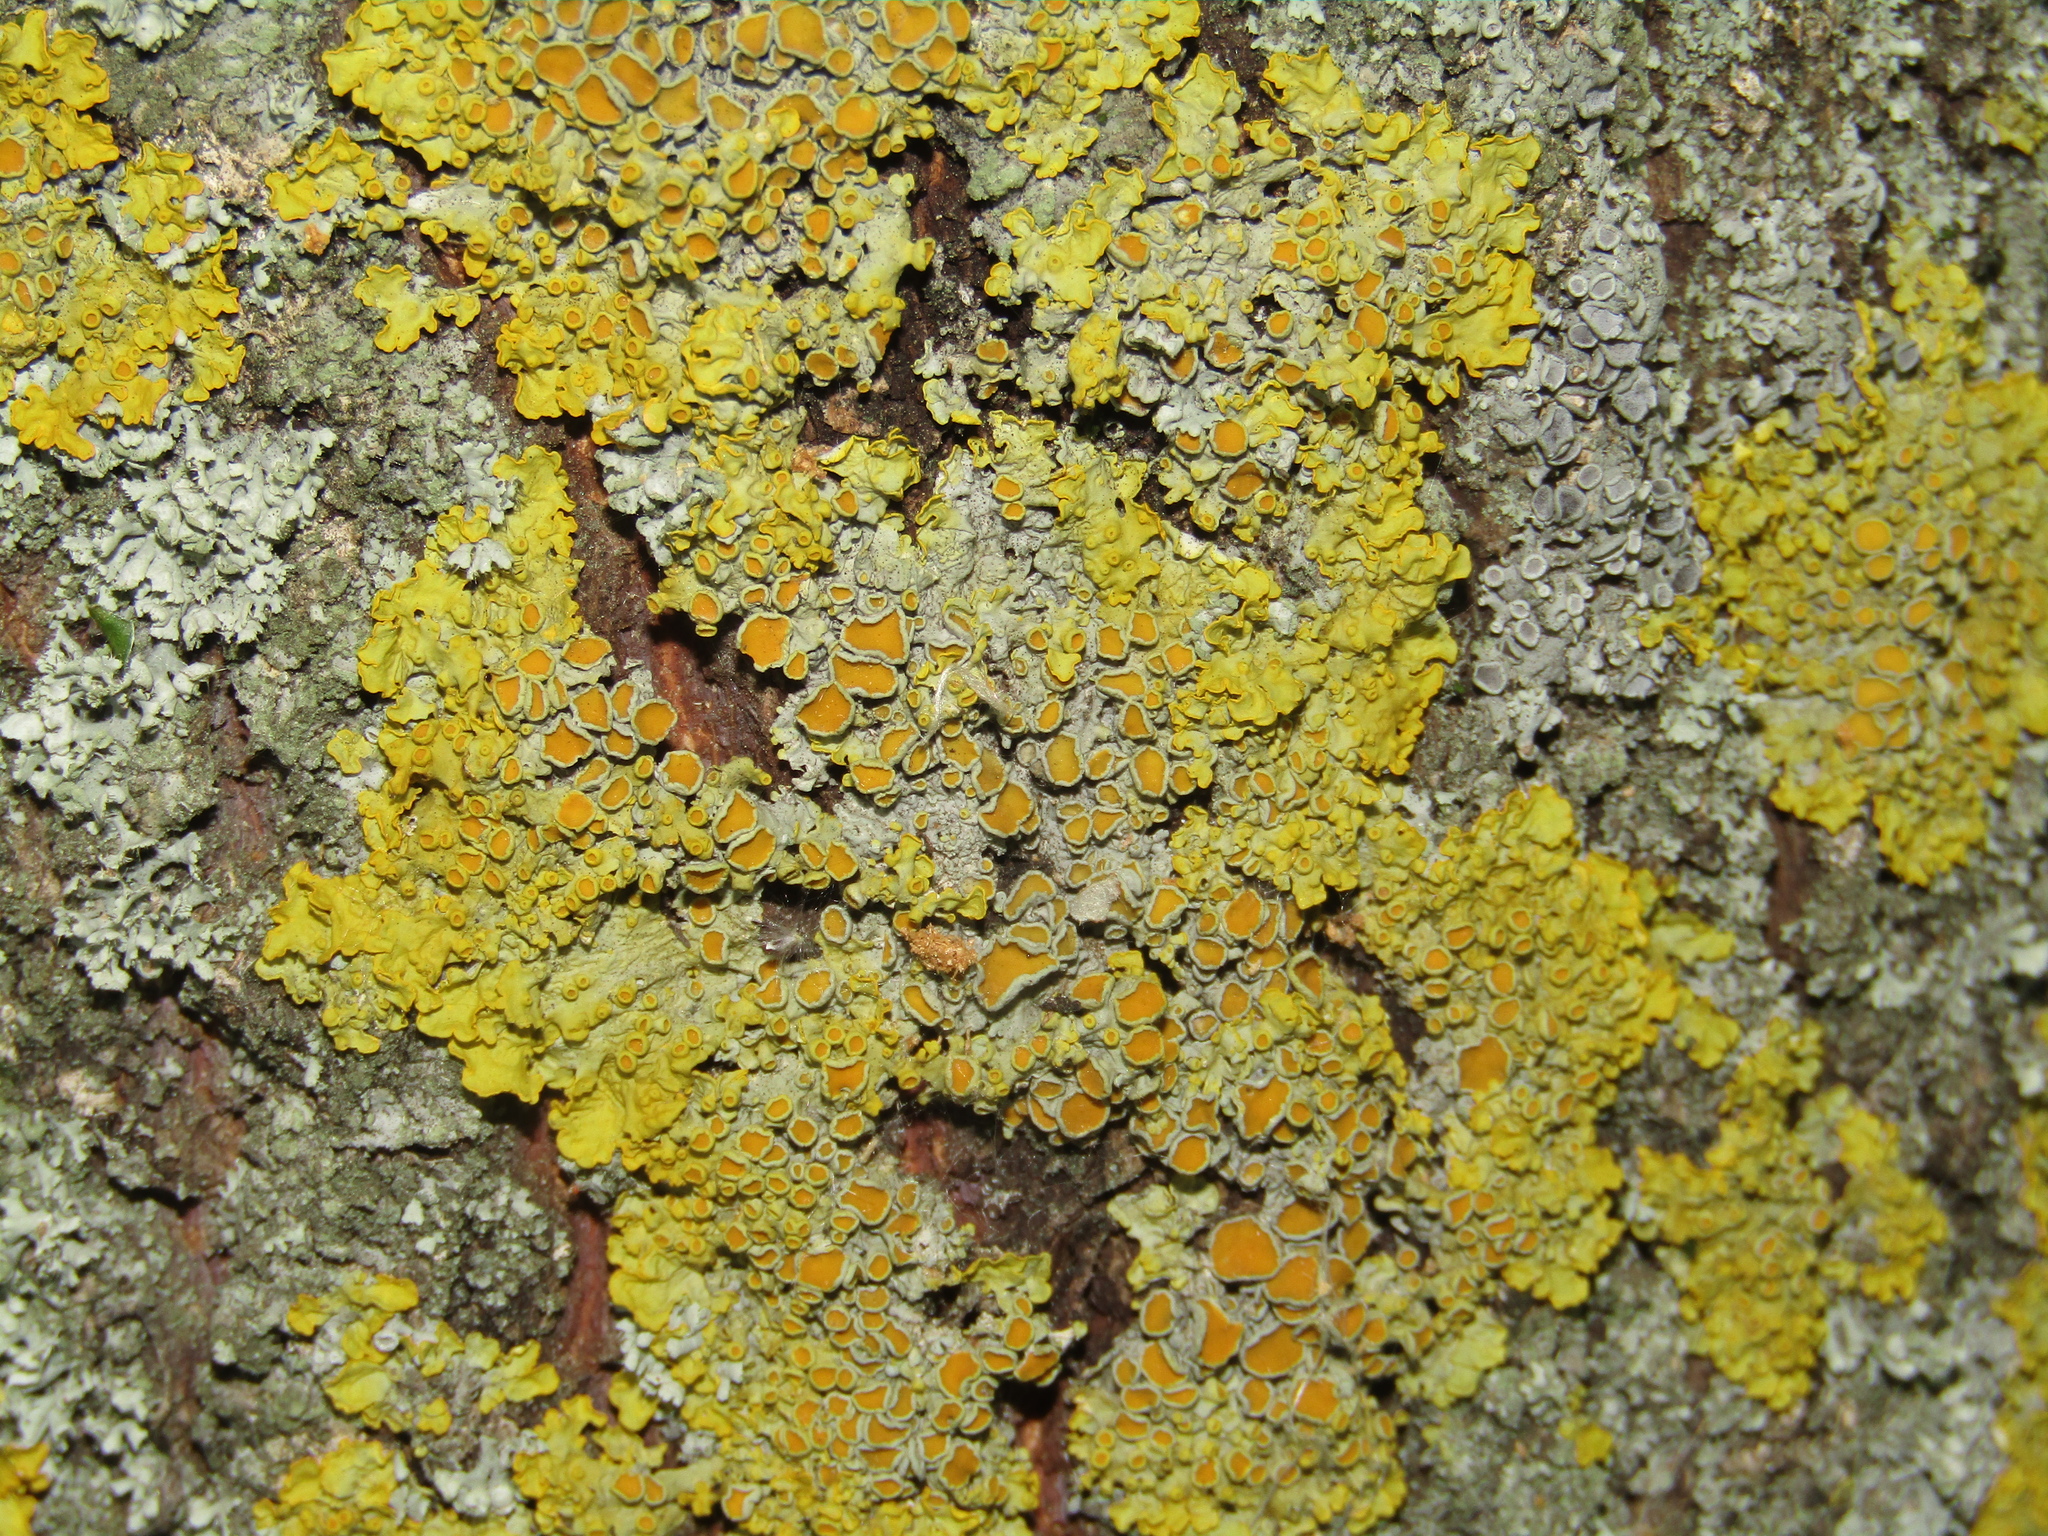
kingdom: Fungi
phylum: Ascomycota
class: Lecanoromycetes
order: Teloschistales
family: Teloschistaceae
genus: Xanthoria
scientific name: Xanthoria parietina
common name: Common orange lichen
